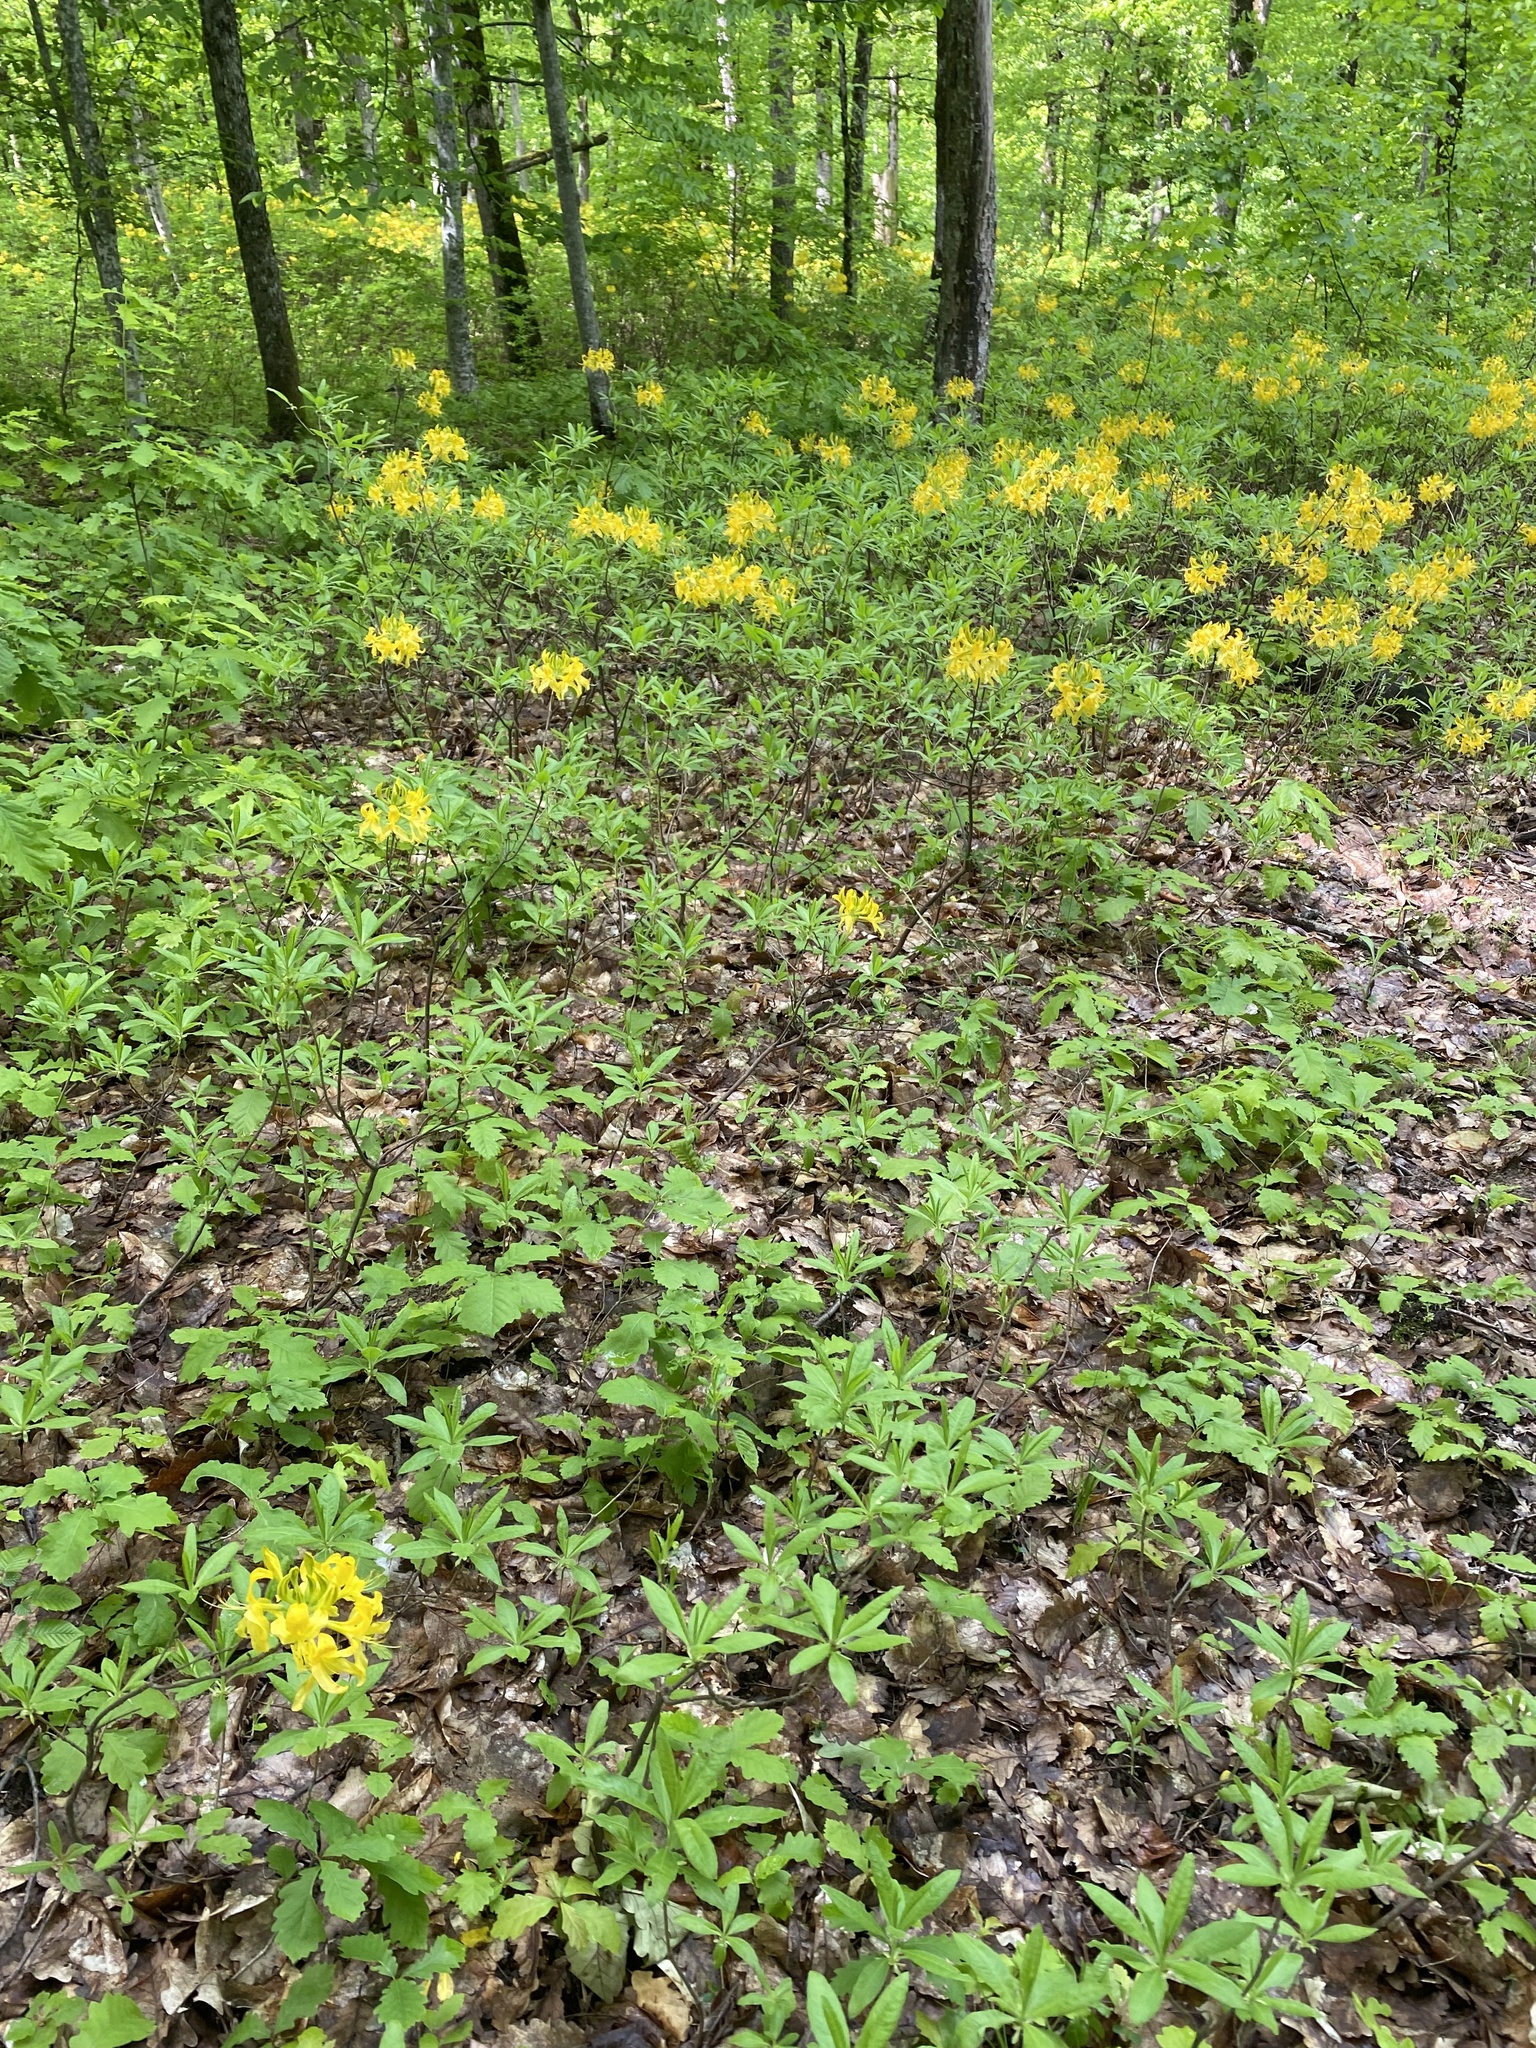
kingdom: Plantae
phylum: Tracheophyta
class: Magnoliopsida
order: Ericales
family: Ericaceae
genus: Rhododendron
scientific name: Rhododendron luteum
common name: Yellow azalea
